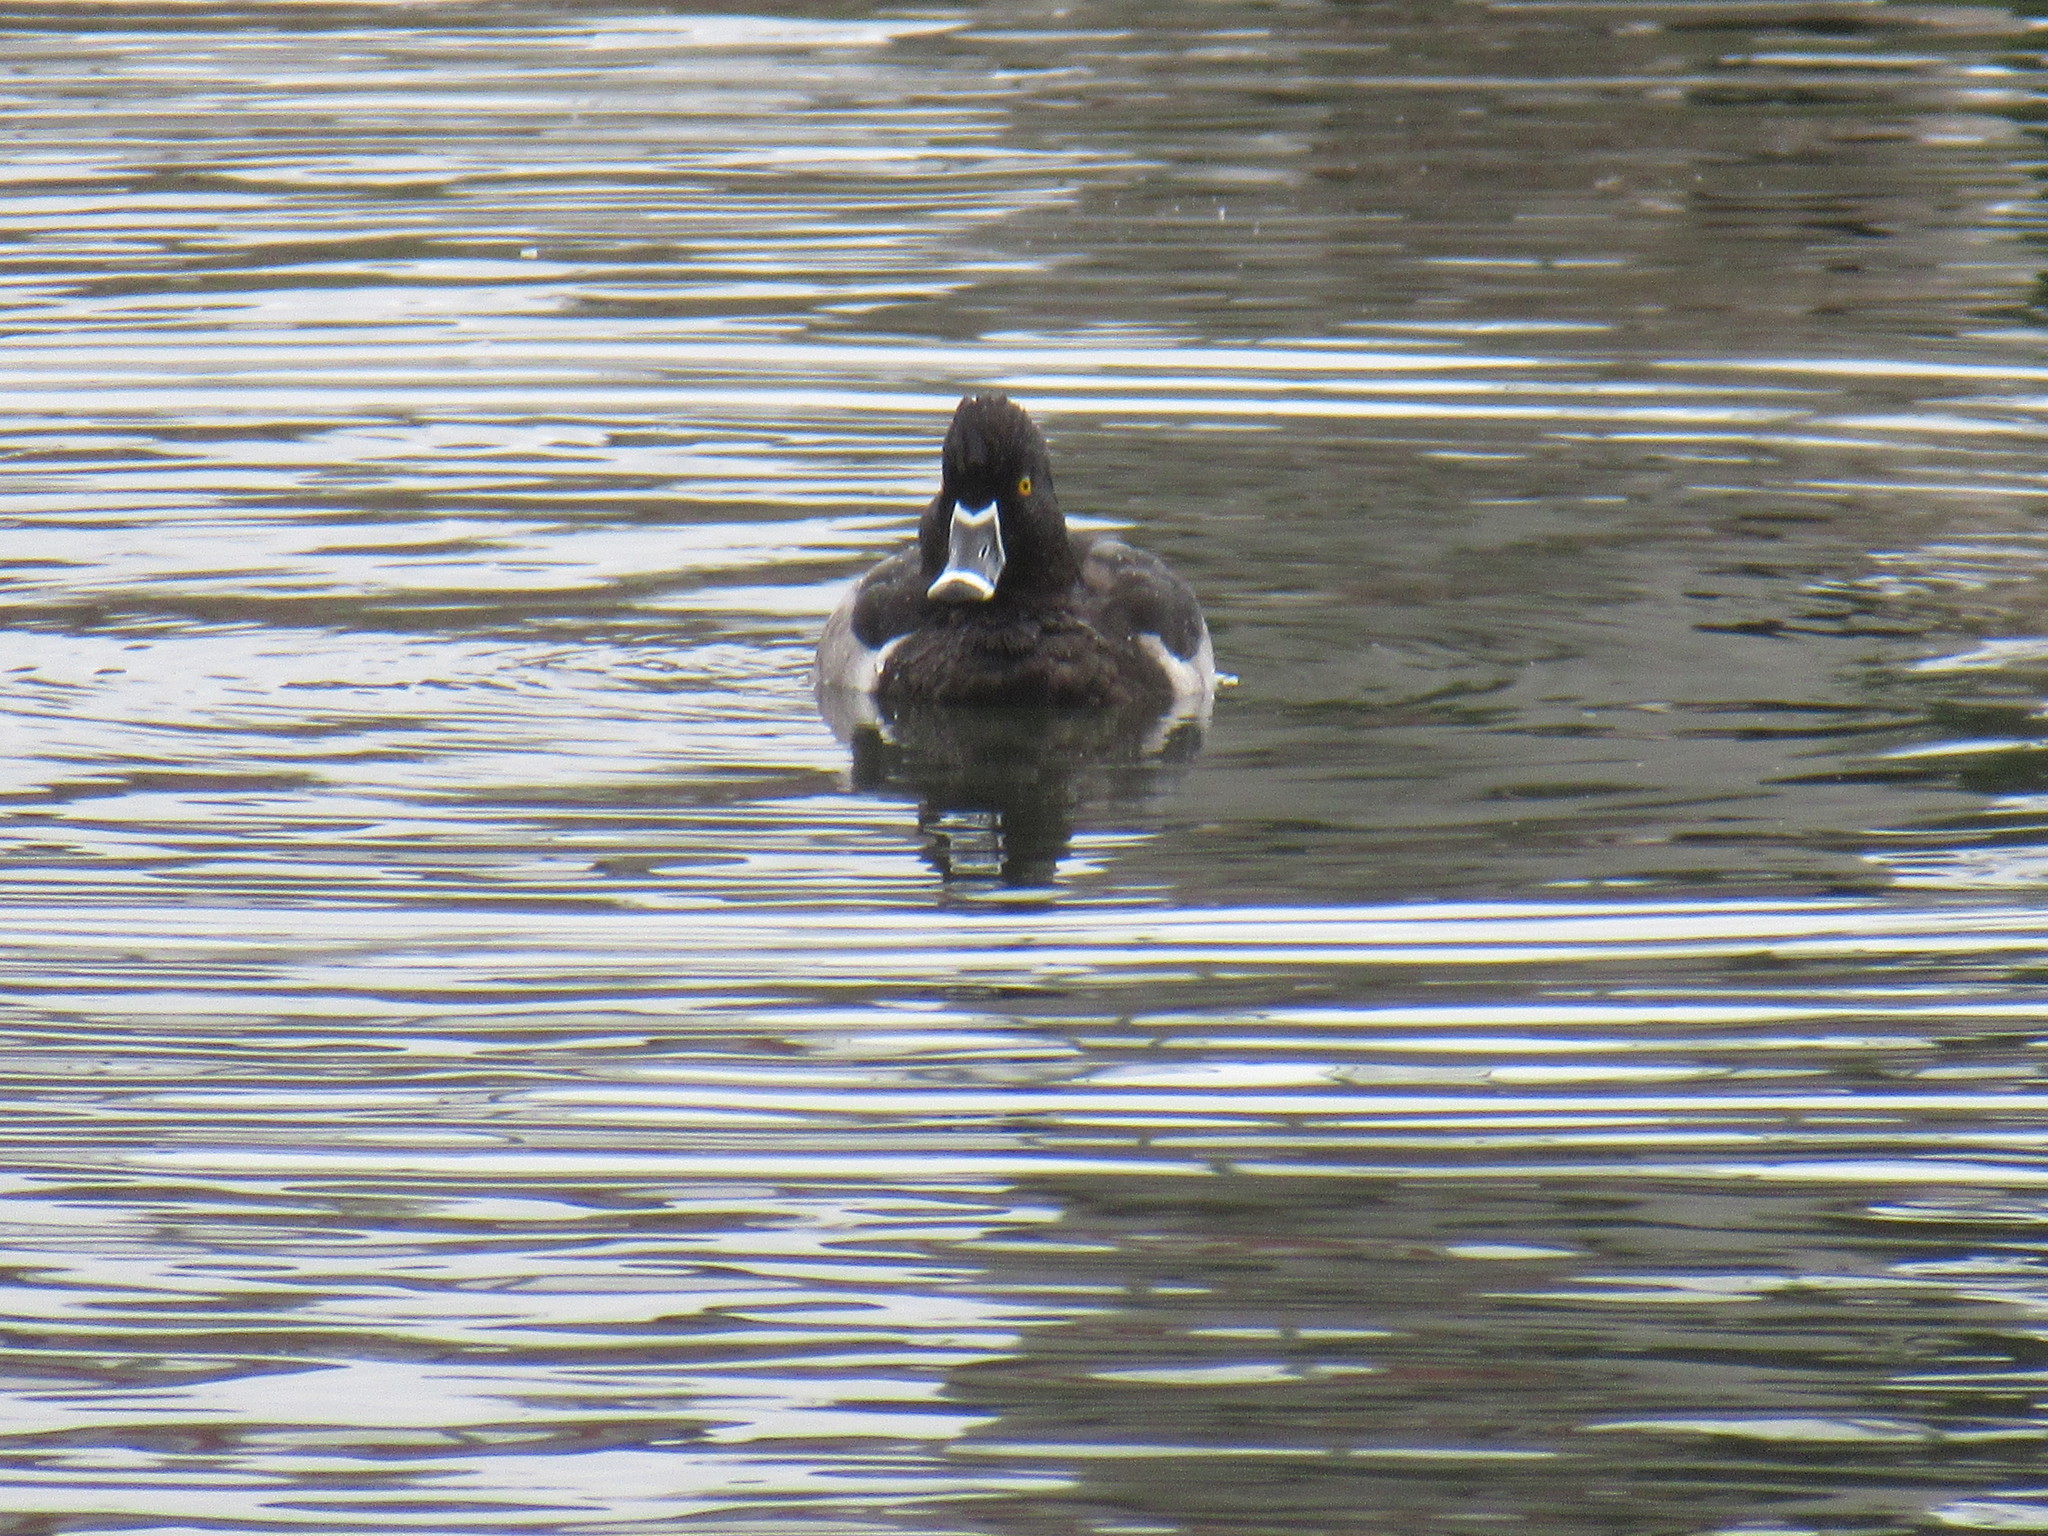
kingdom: Animalia
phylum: Chordata
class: Aves
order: Anseriformes
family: Anatidae
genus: Aythya
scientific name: Aythya collaris
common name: Ring-necked duck
